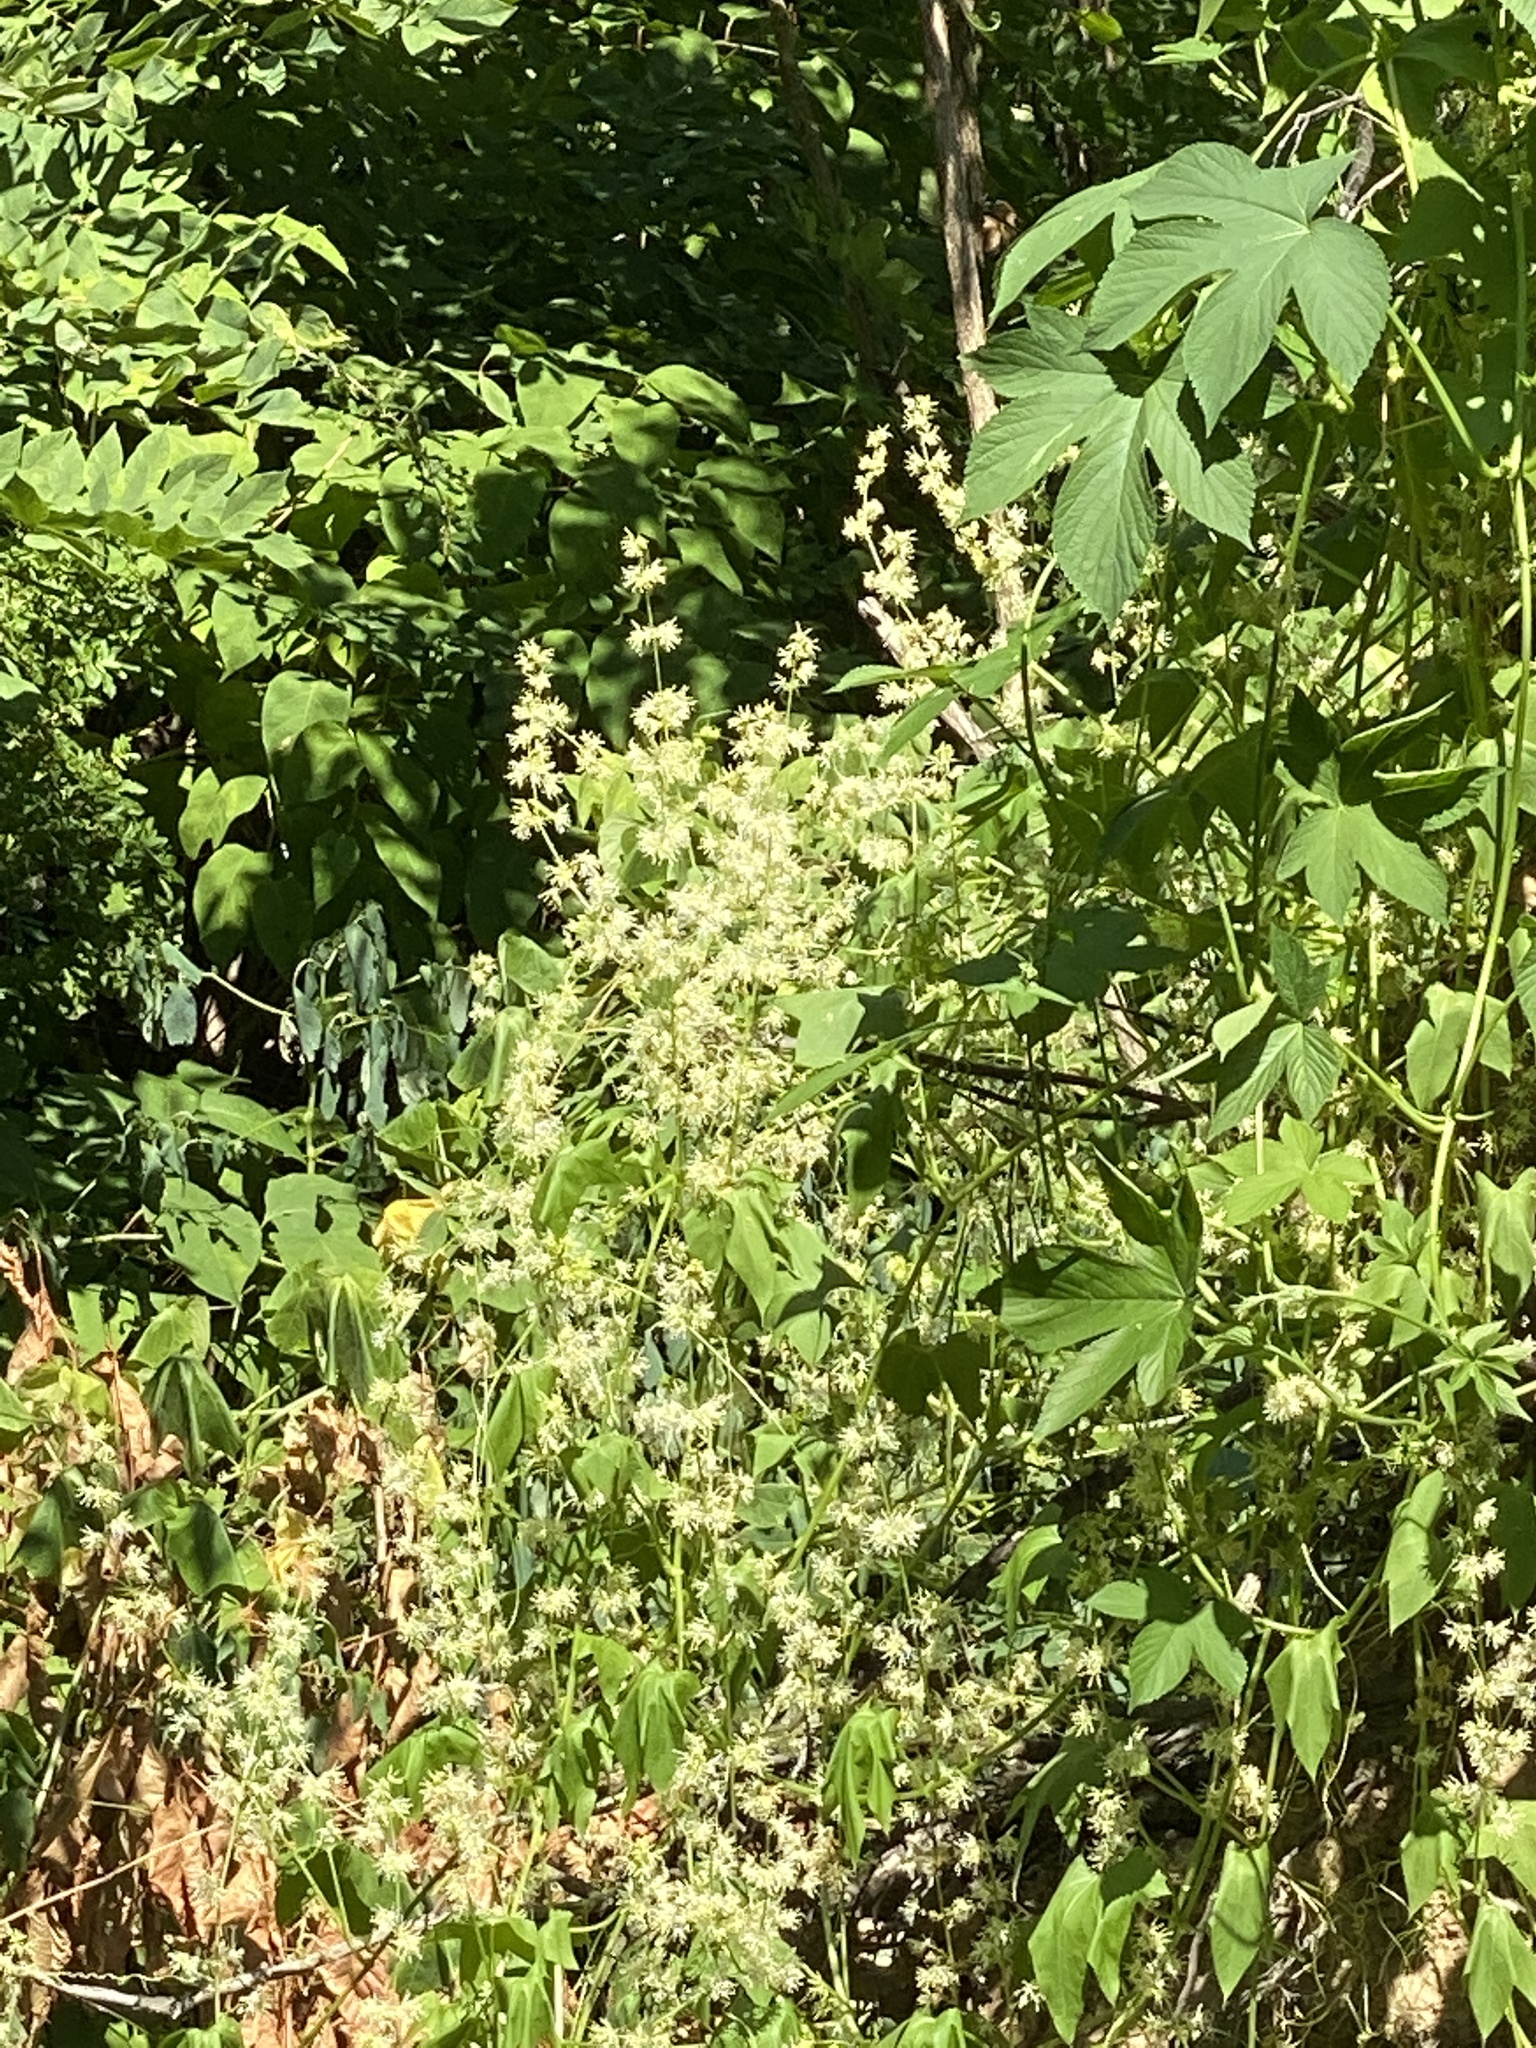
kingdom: Plantae
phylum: Tracheophyta
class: Magnoliopsida
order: Cucurbitales
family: Cucurbitaceae
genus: Echinocystis
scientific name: Echinocystis lobata
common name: Wild cucumber
